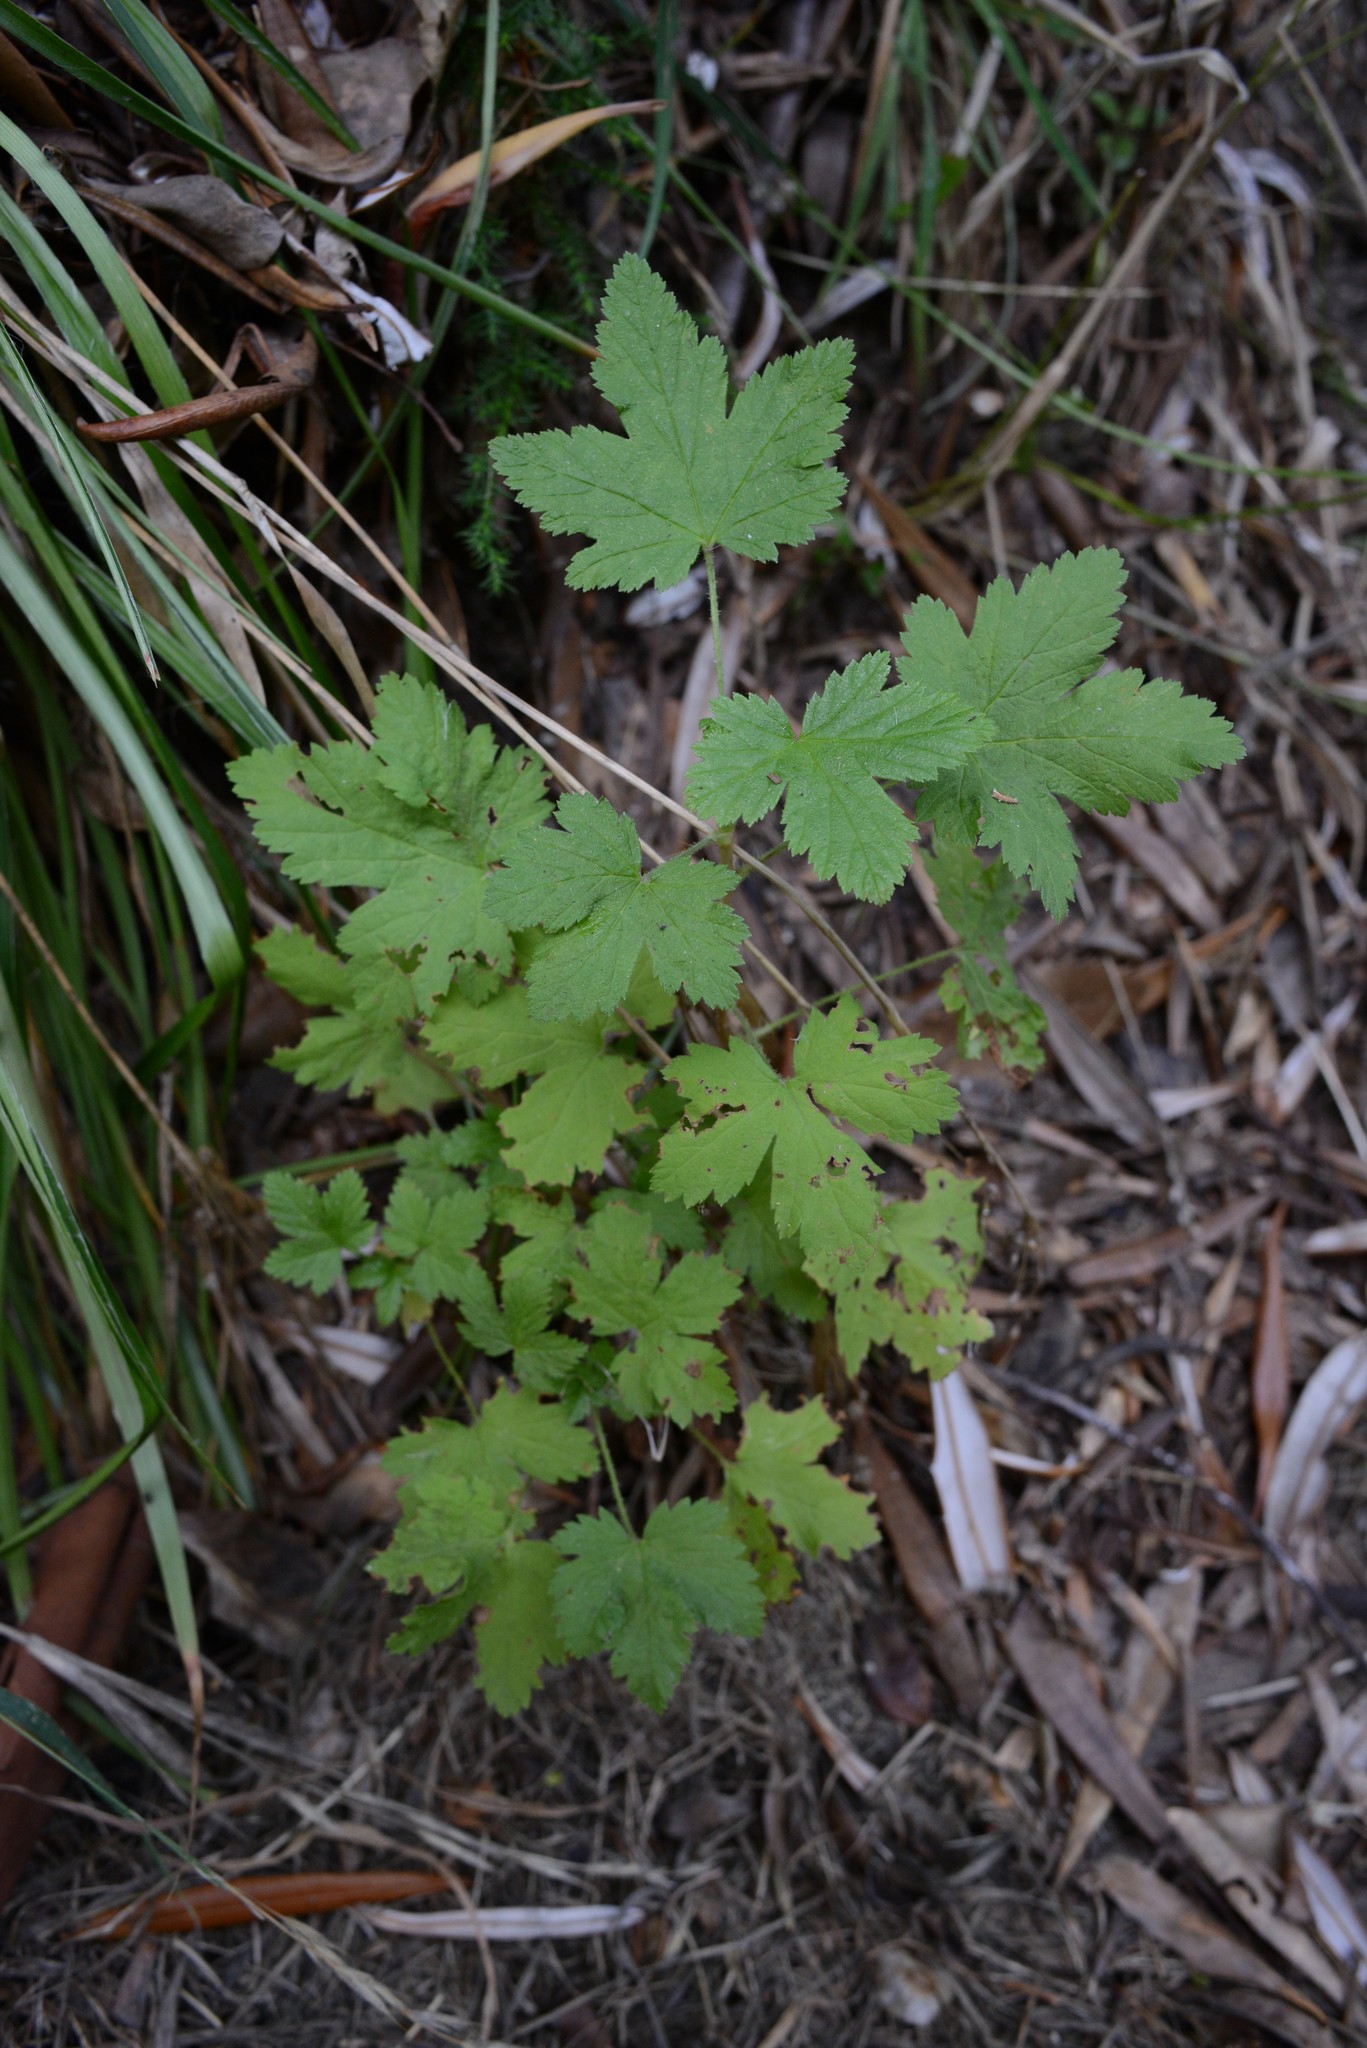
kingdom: Plantae
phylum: Tracheophyta
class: Magnoliopsida
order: Saxifragales
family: Grossulariaceae
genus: Ribes
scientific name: Ribes sanguineum
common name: Flowering currant
